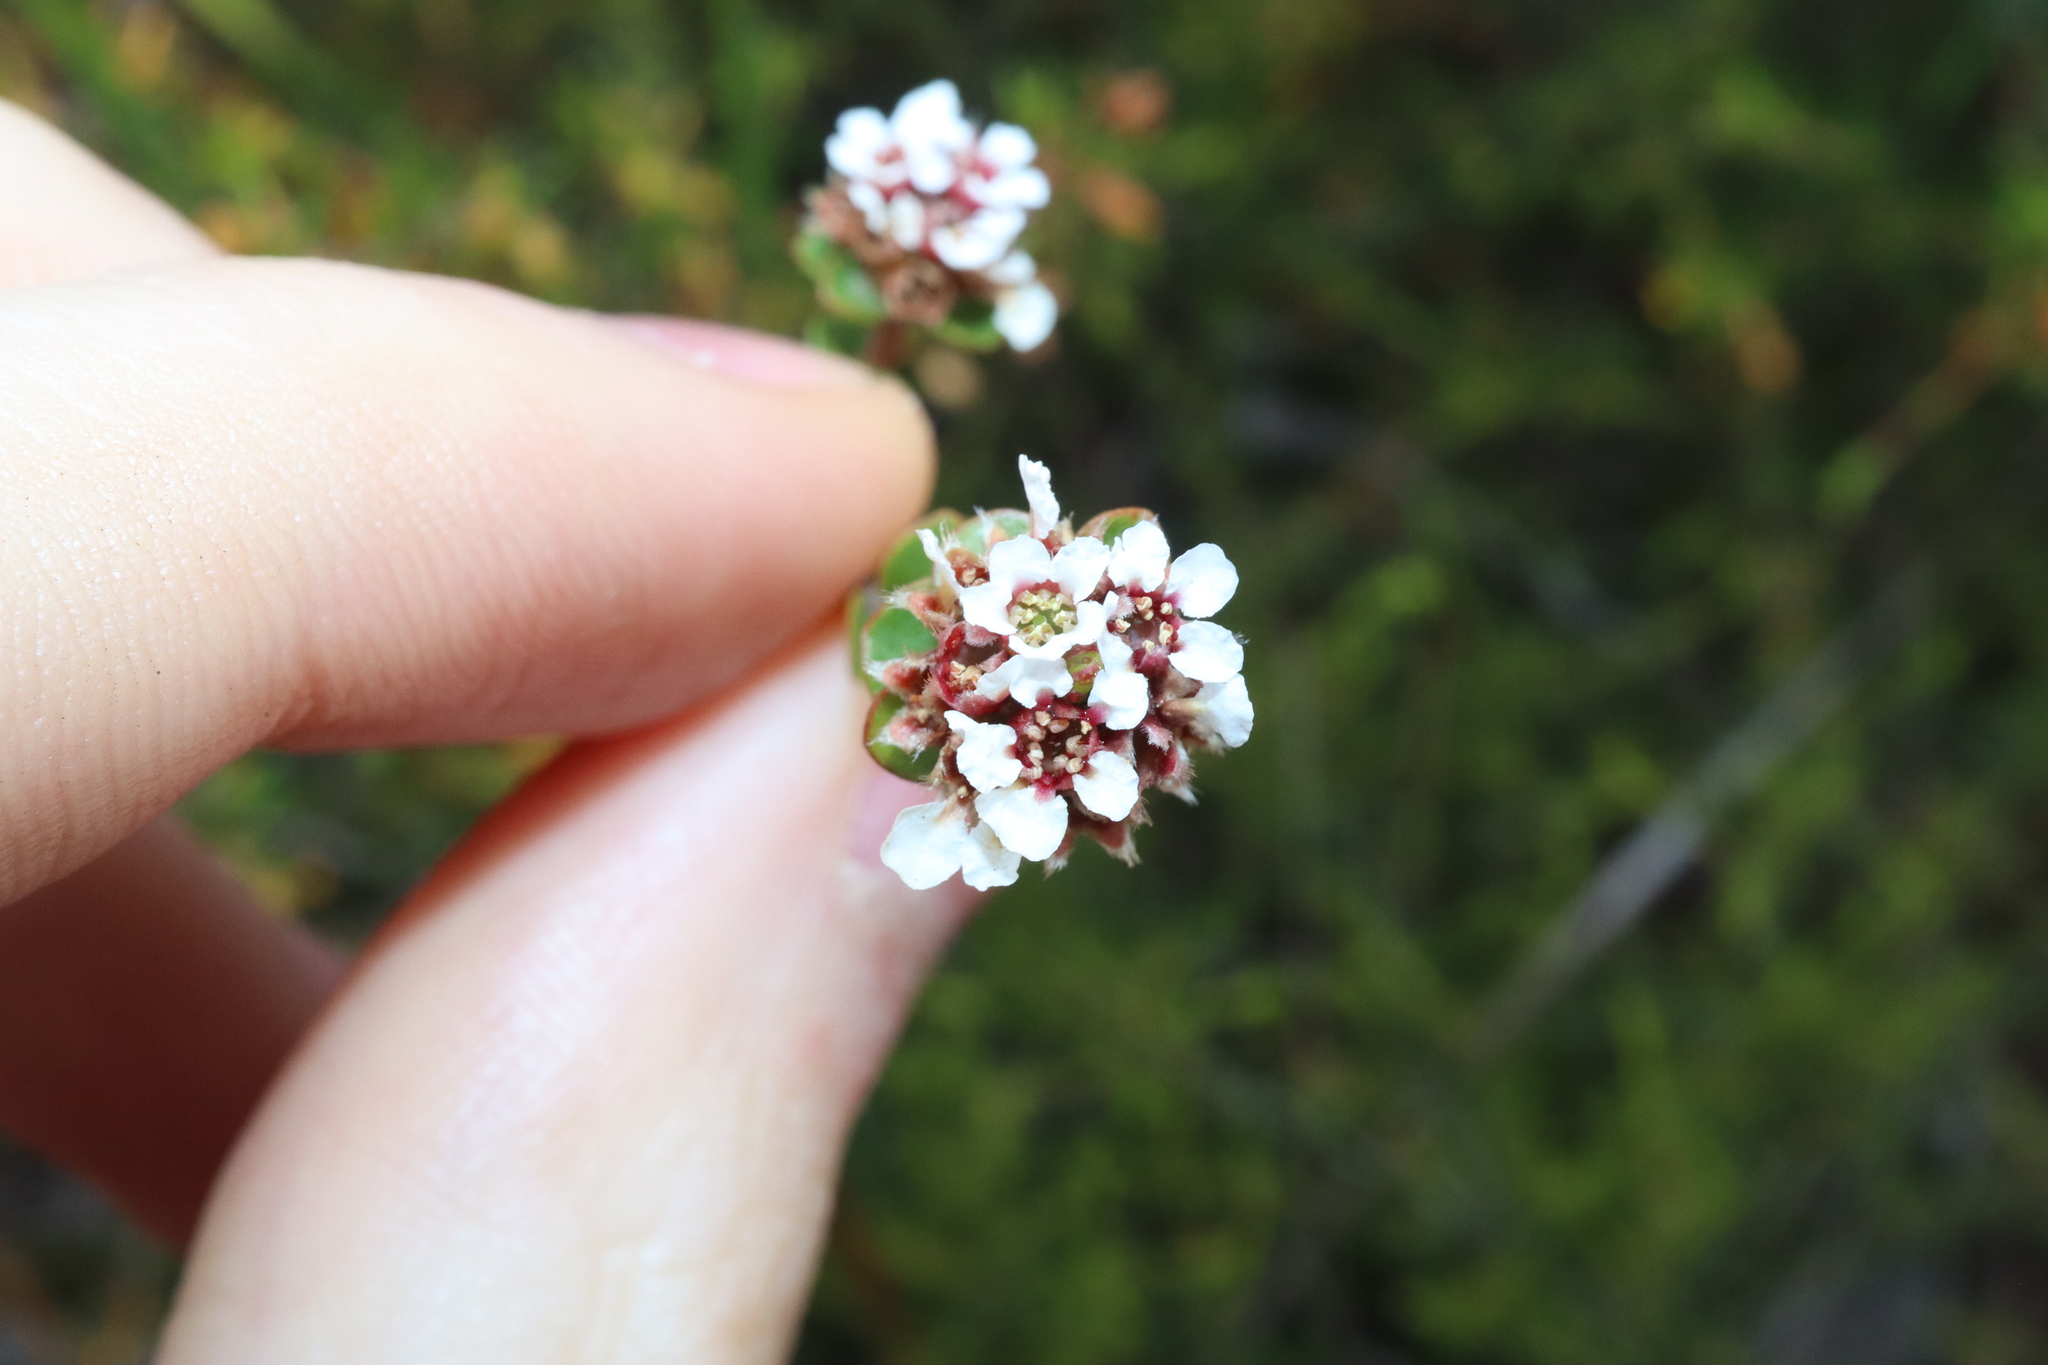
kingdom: Plantae
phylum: Tracheophyta
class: Magnoliopsida
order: Myrtales
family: Myrtaceae
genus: Taxandria
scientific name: Taxandria spathulata
